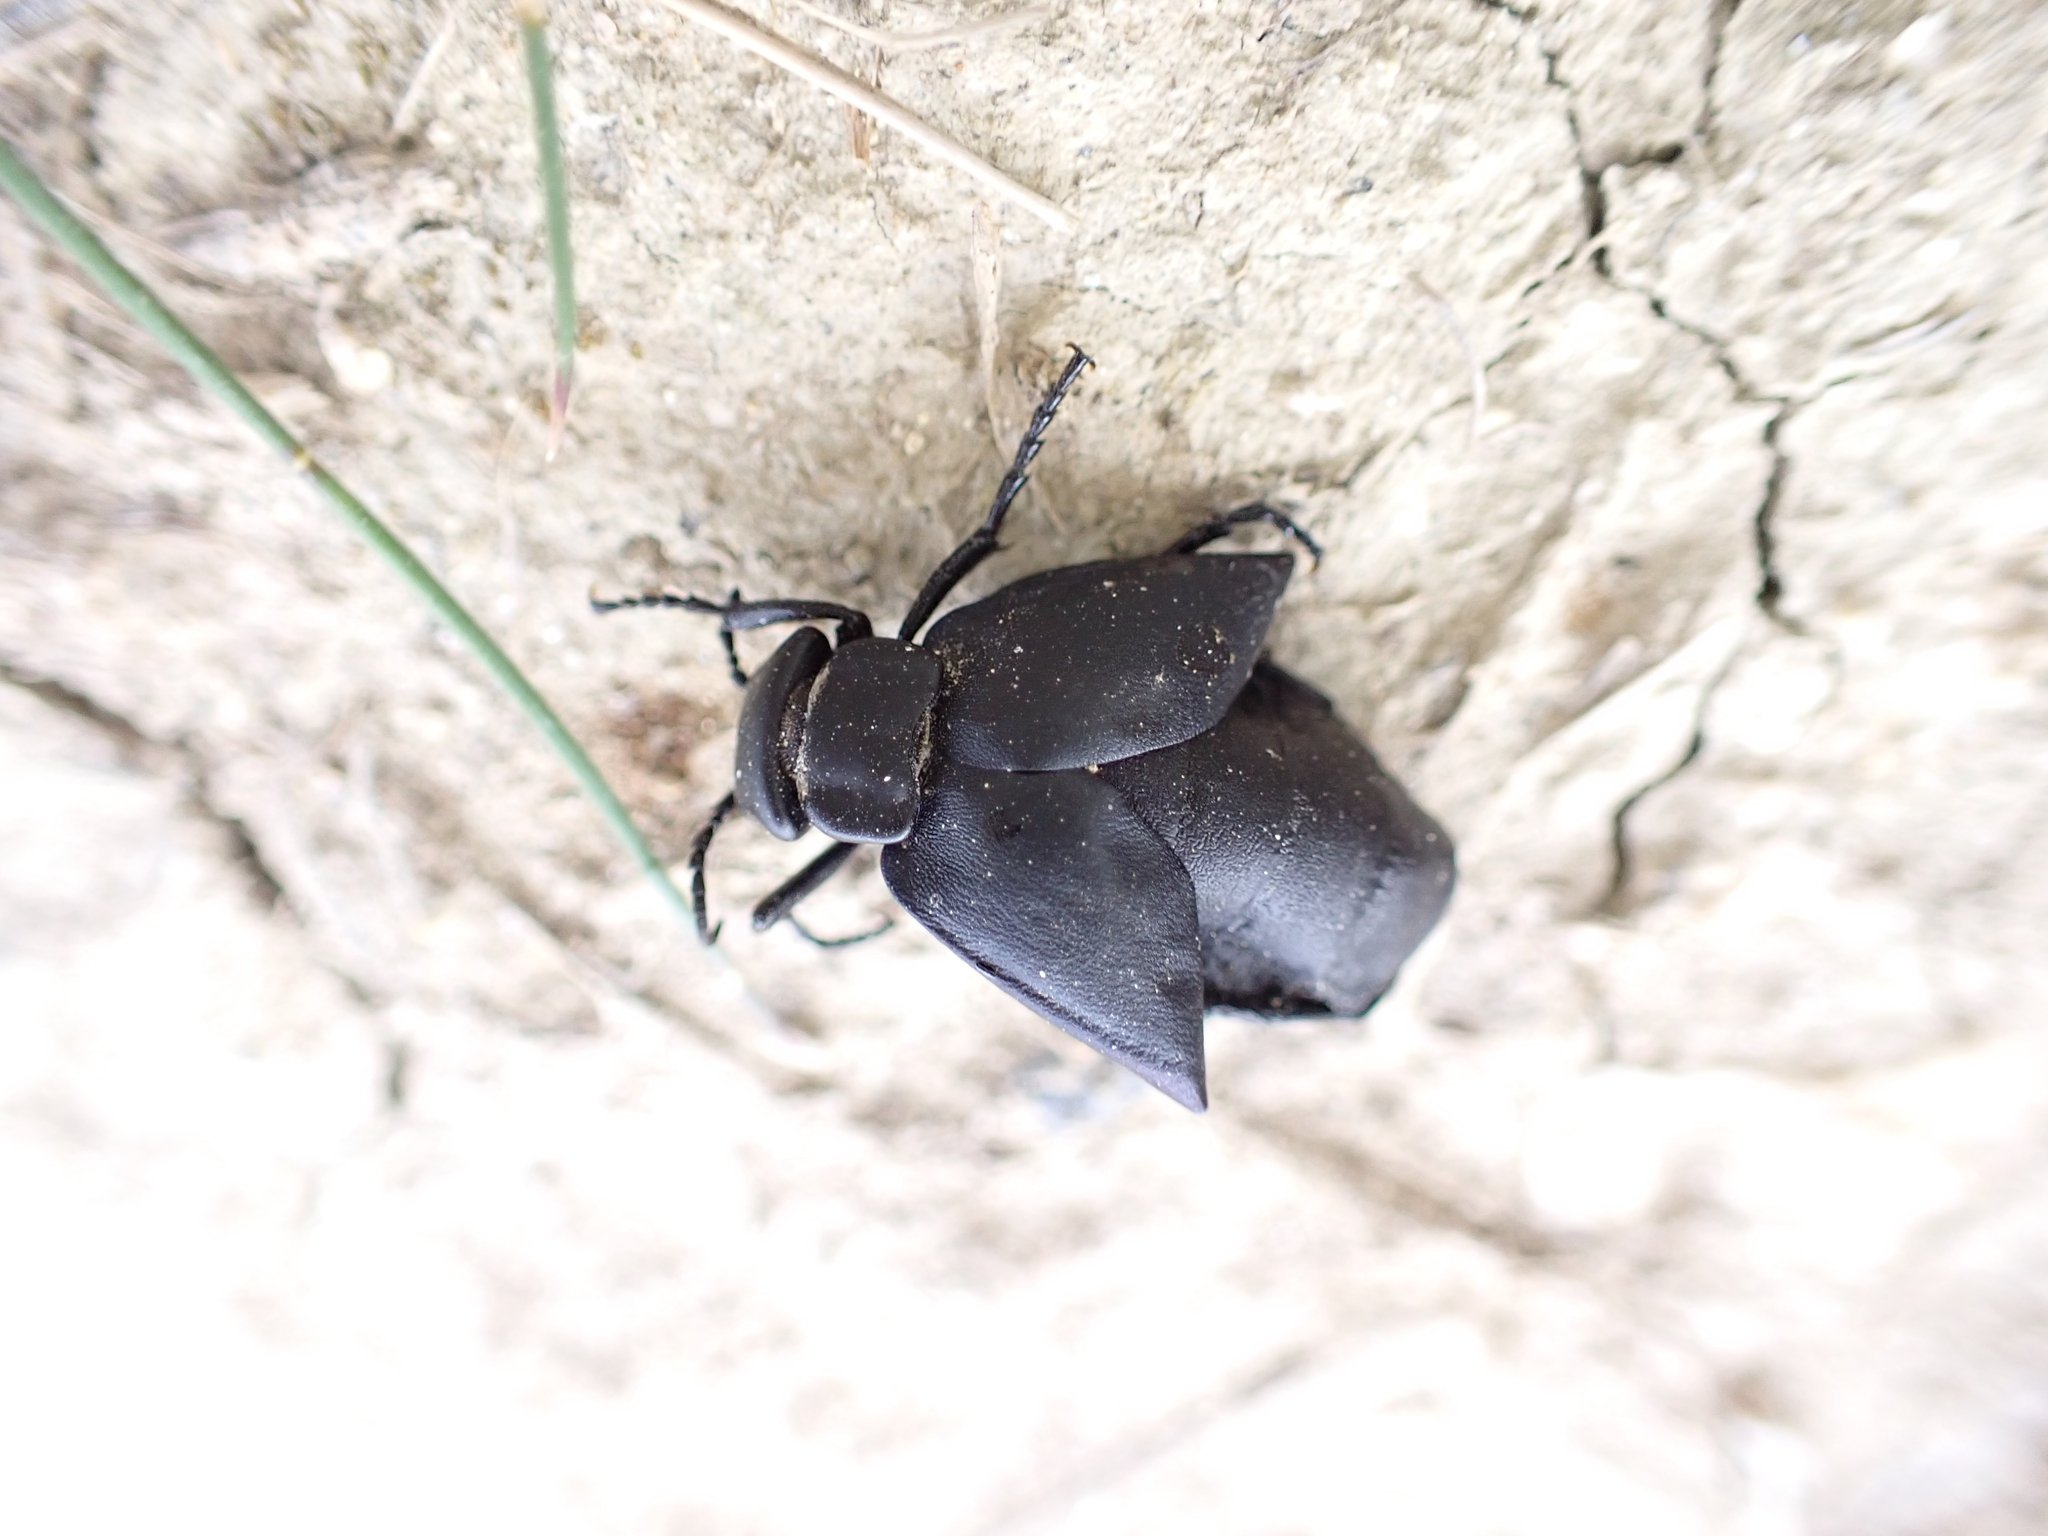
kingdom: Animalia
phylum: Arthropoda
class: Insecta
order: Coleoptera
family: Meloidae
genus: Meloe
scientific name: Meloe uralensis
